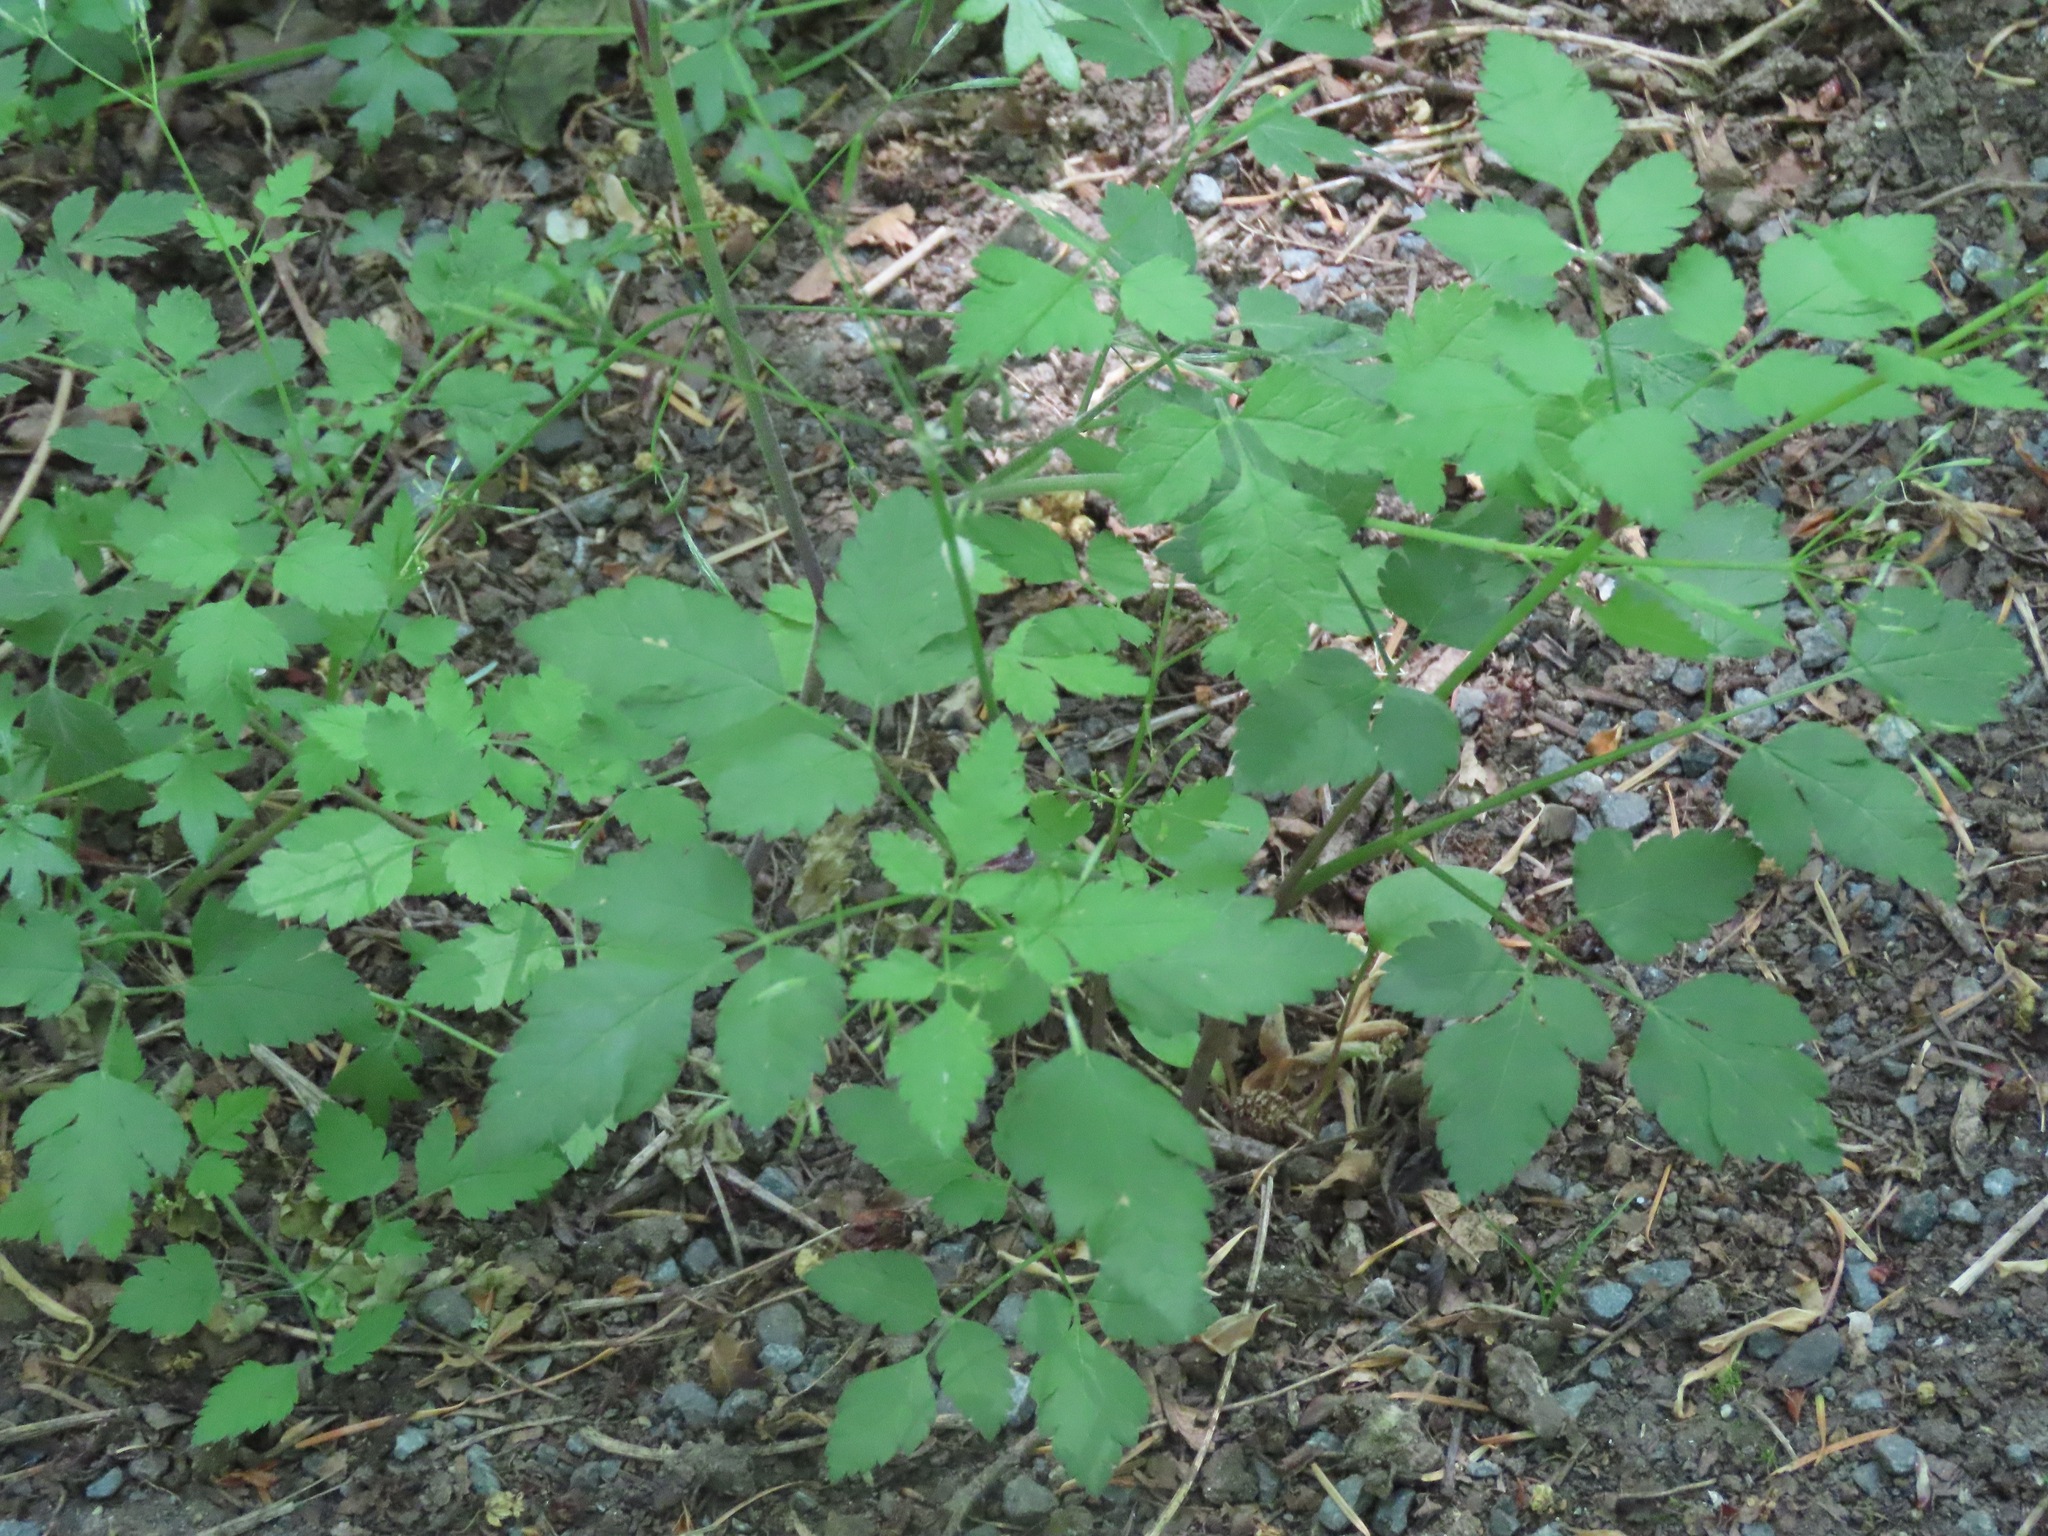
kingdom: Plantae
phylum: Tracheophyta
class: Magnoliopsida
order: Apiales
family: Apiaceae
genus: Osmorhiza
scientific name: Osmorhiza berteroi
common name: Mountain sweet cicely
